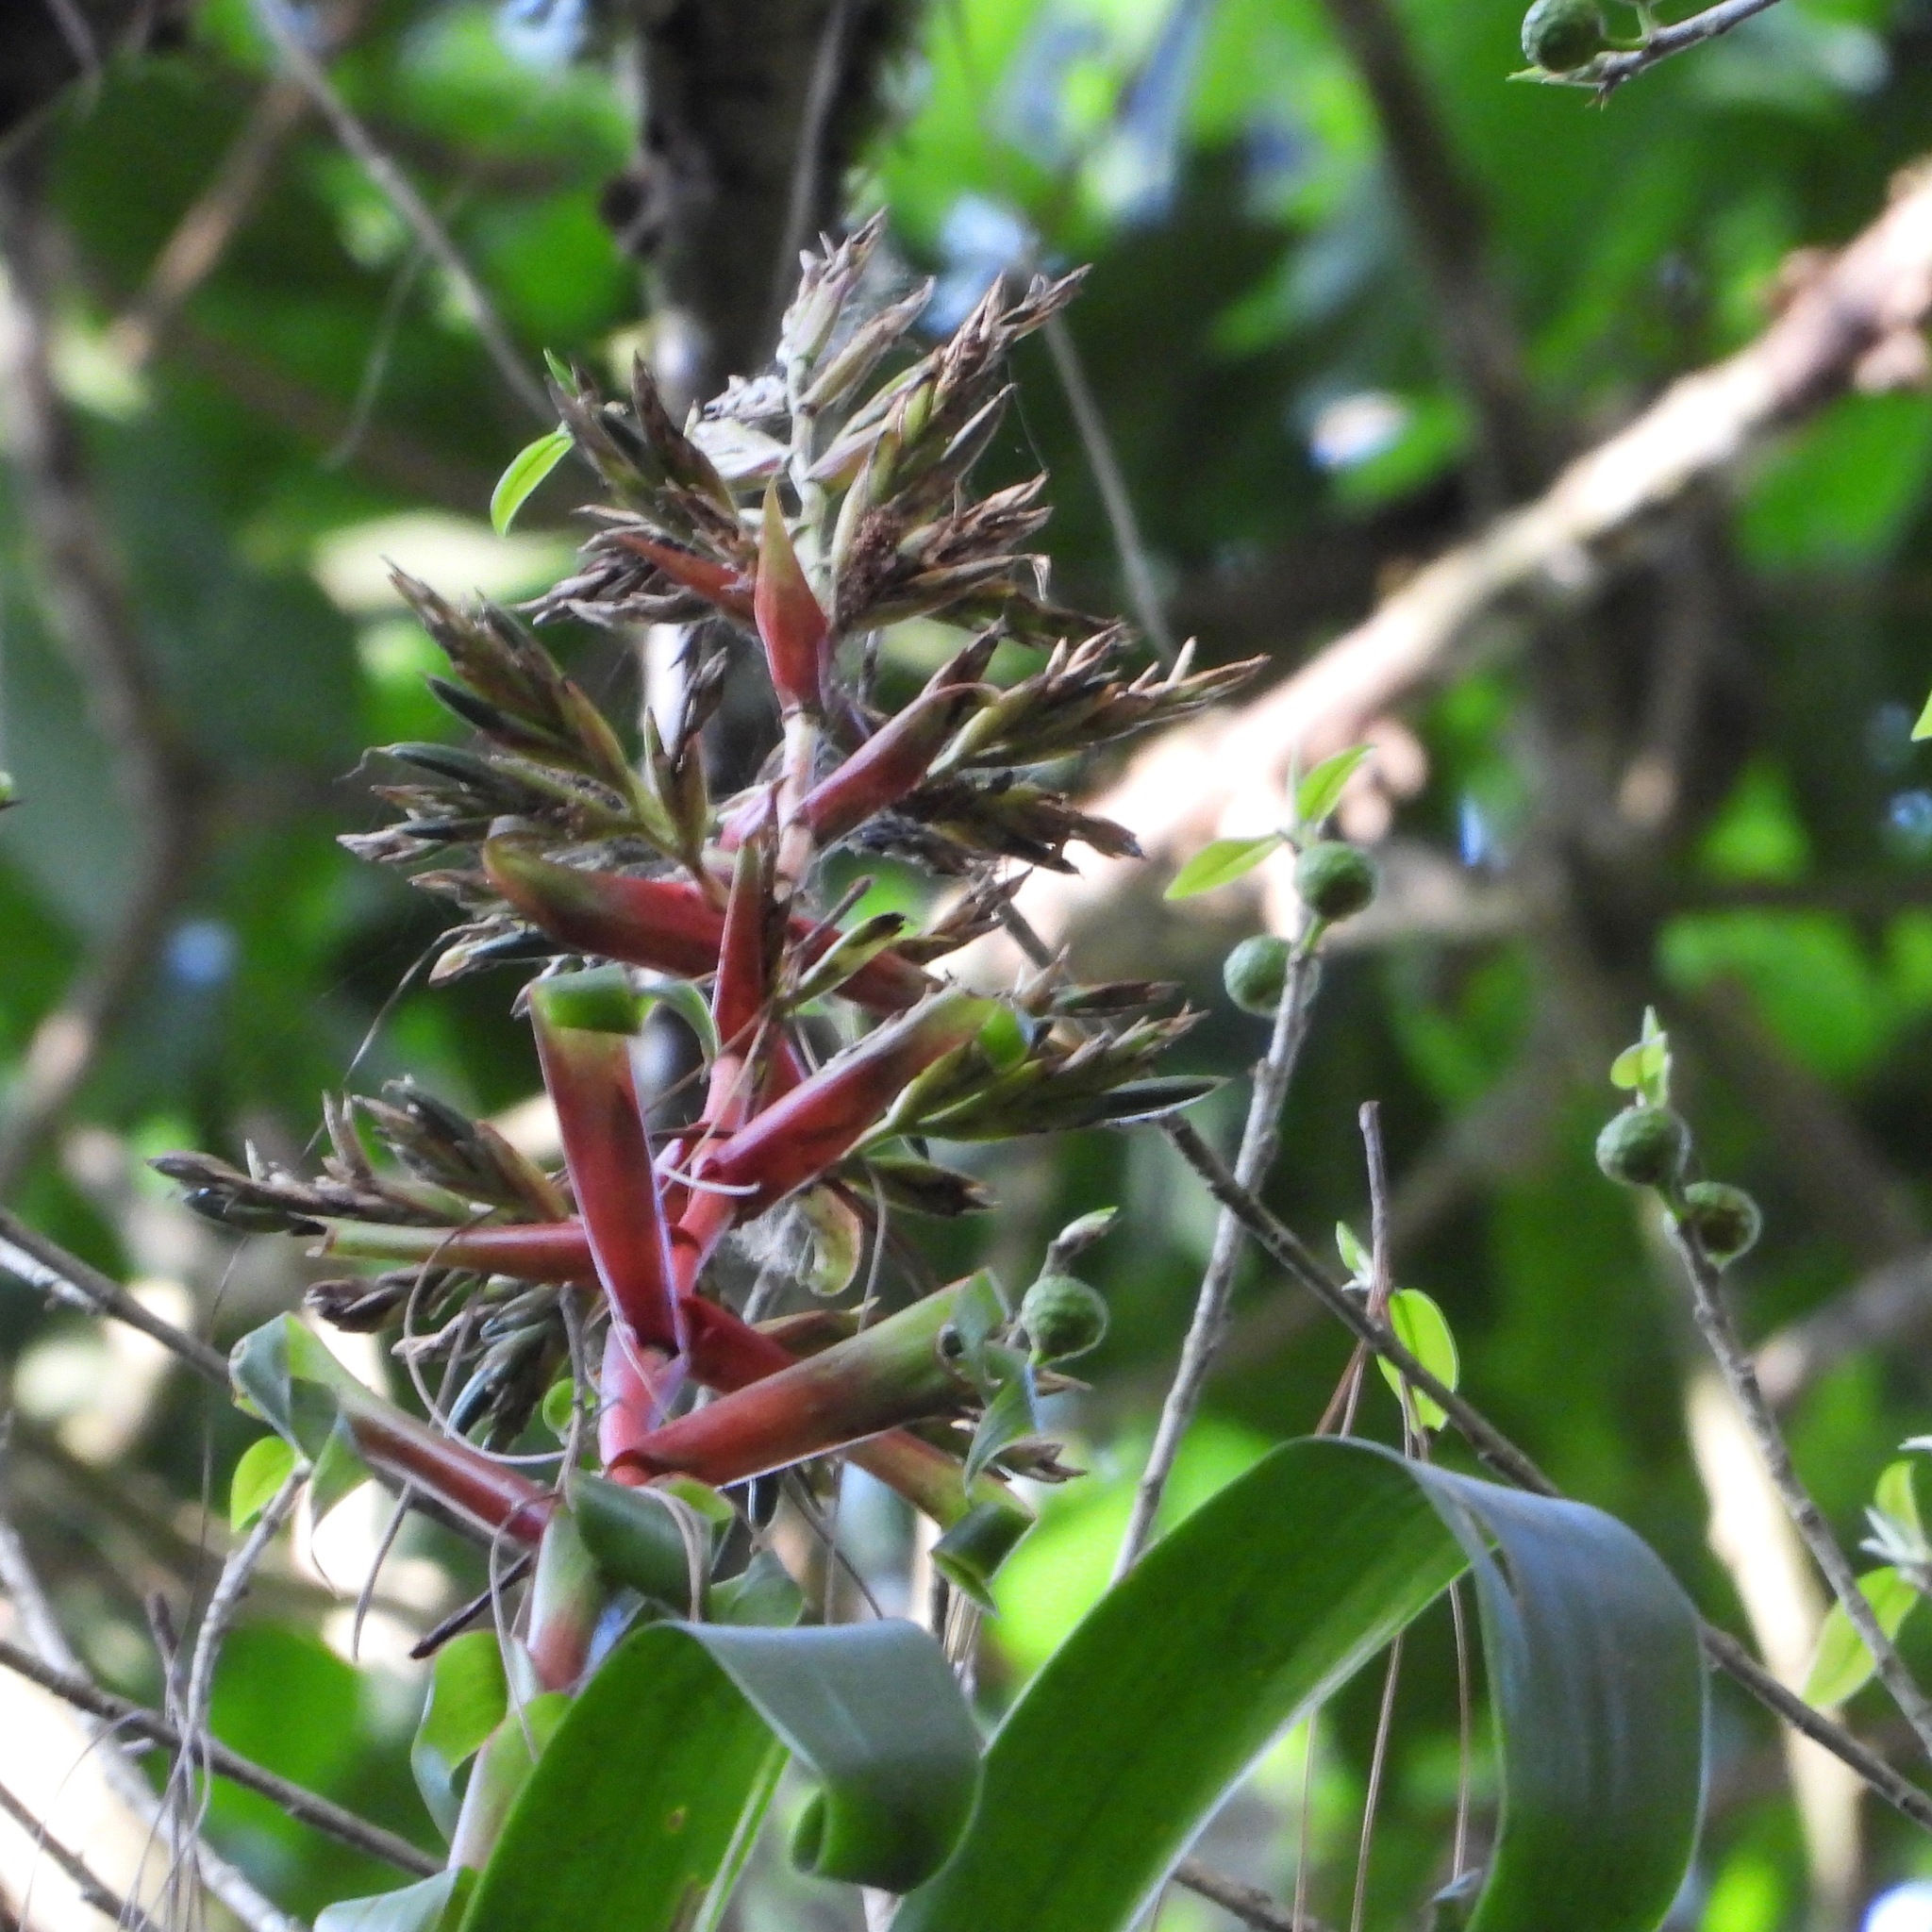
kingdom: Plantae
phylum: Tracheophyta
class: Liliopsida
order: Poales
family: Bromeliaceae
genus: Tillandsia
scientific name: Tillandsia guatemalensis
